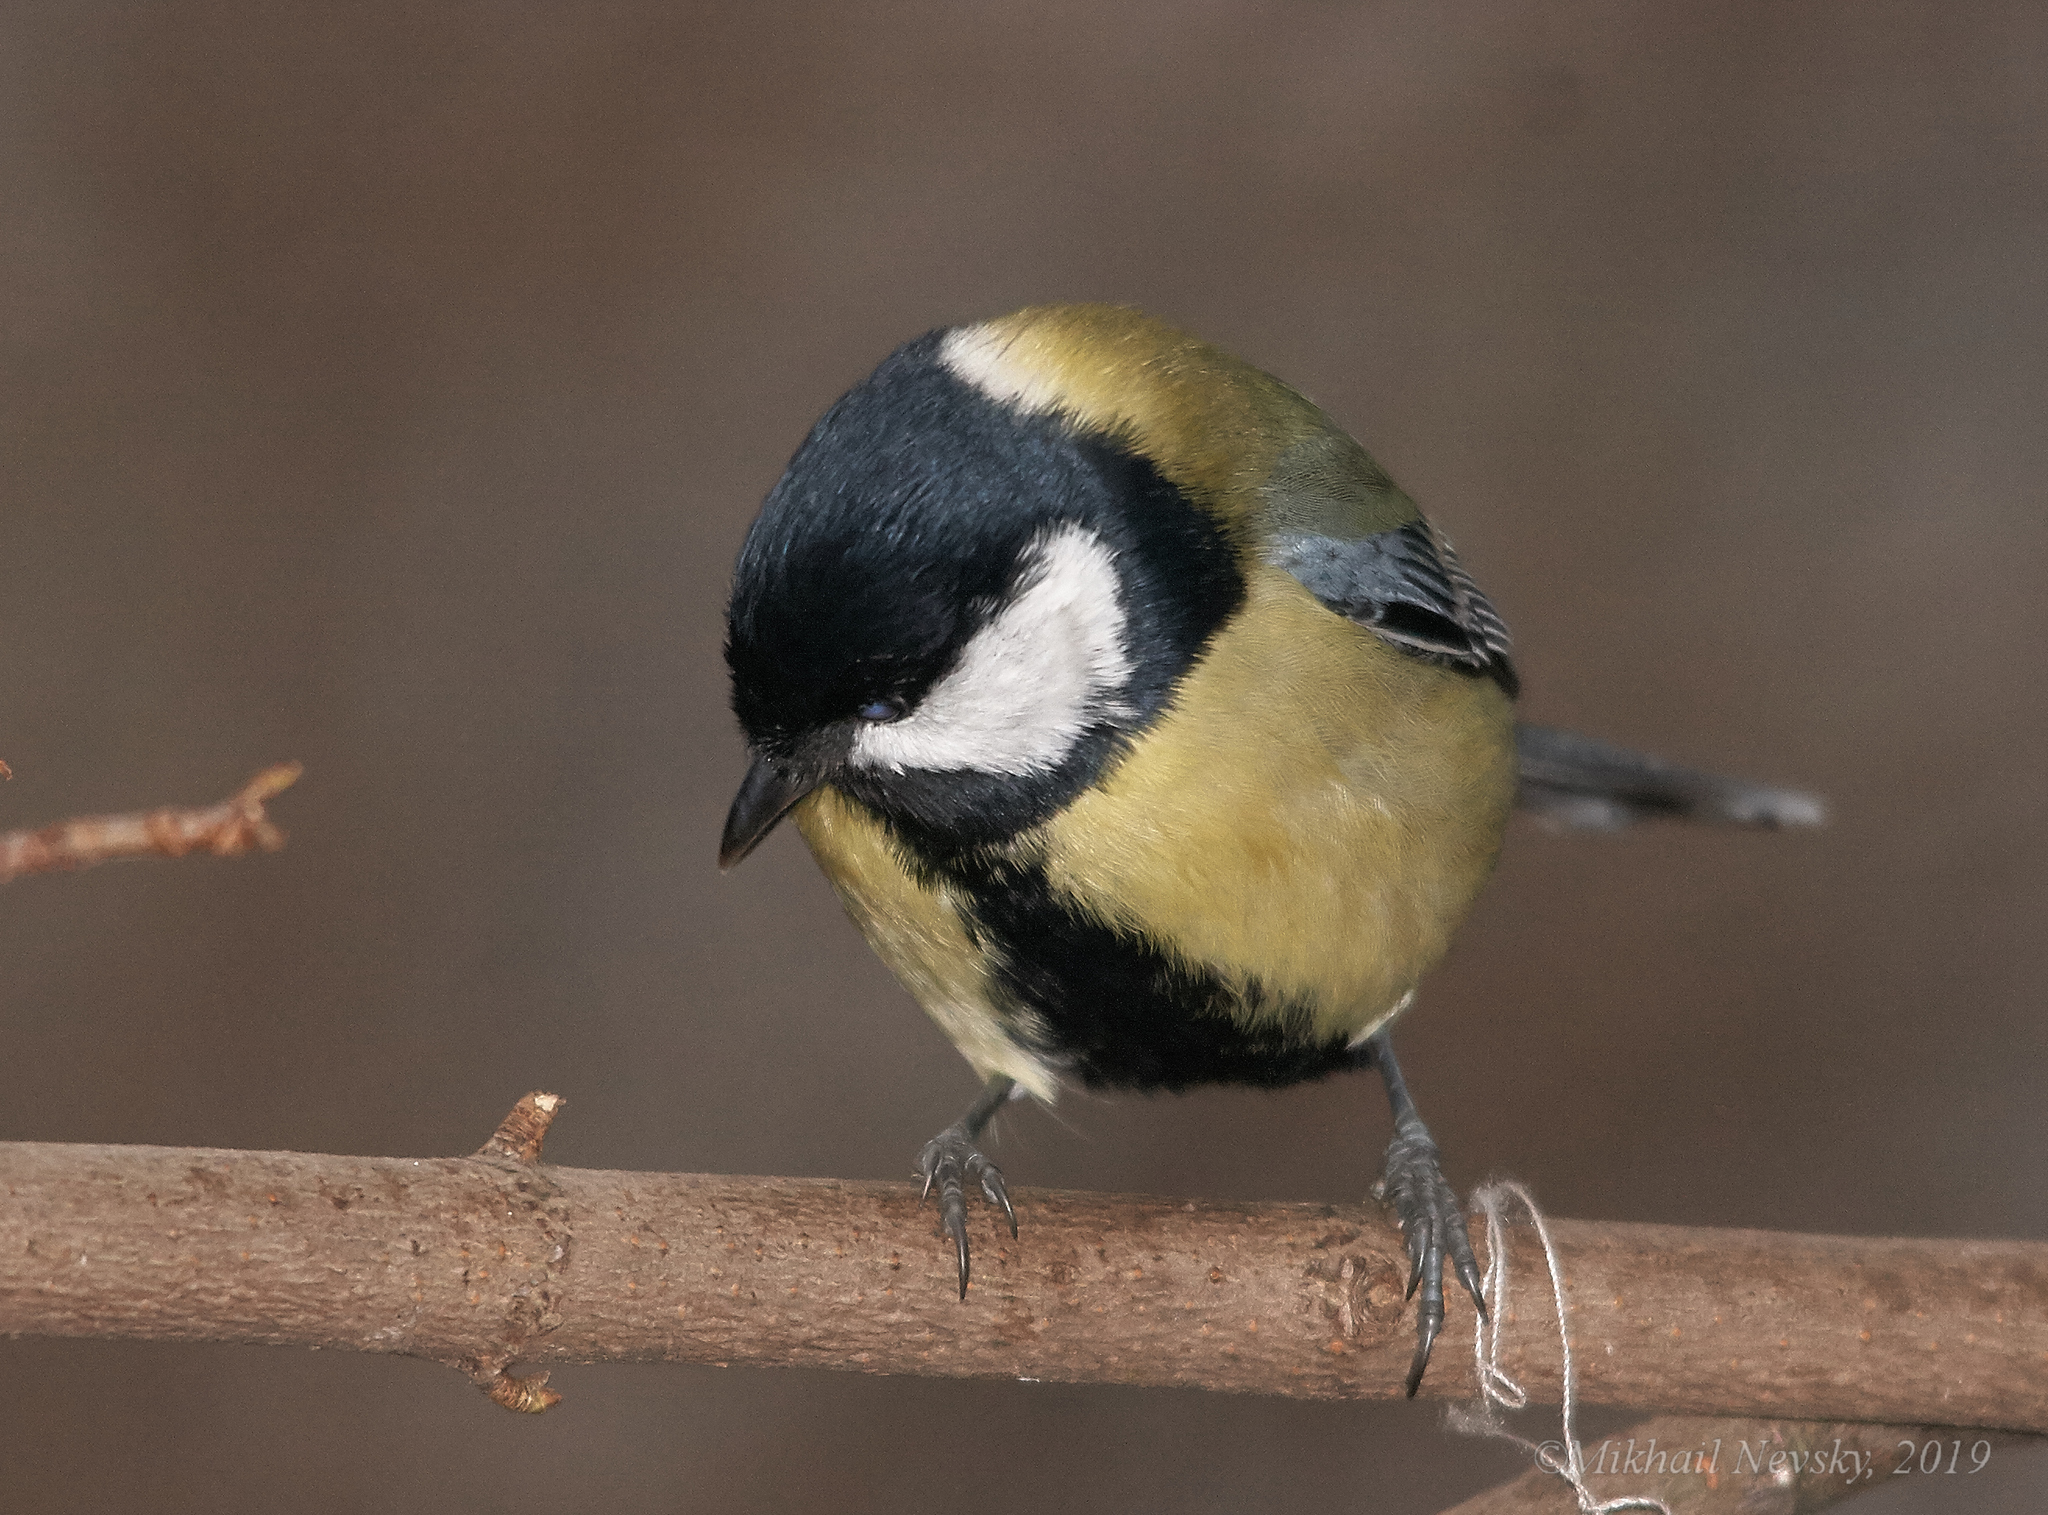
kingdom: Animalia
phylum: Chordata
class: Aves
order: Passeriformes
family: Paridae
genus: Parus
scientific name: Parus major
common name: Great tit
